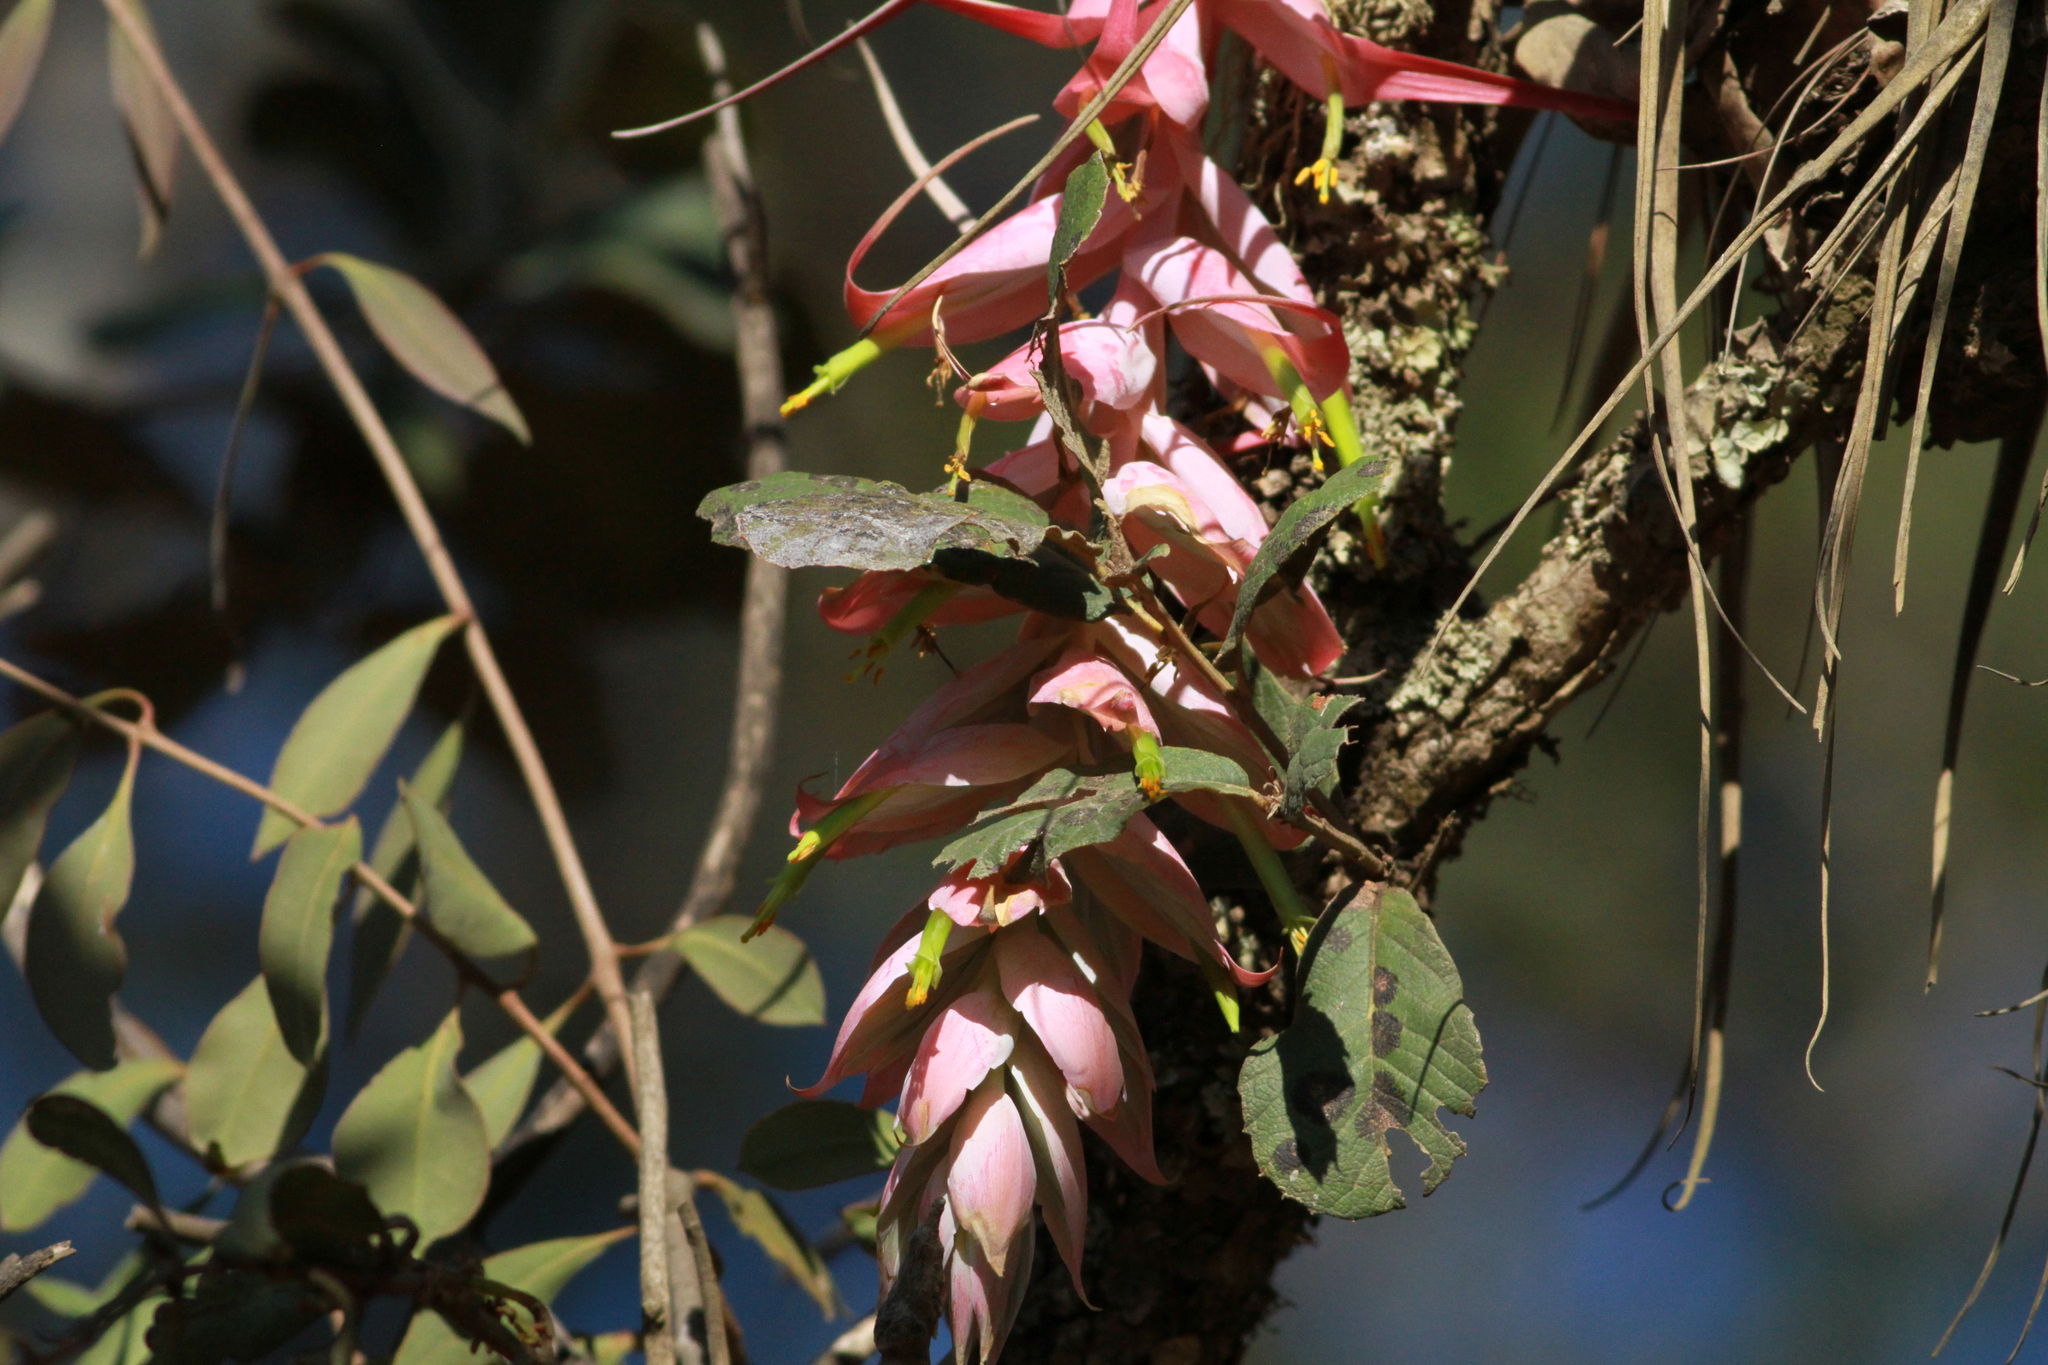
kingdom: Plantae
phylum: Tracheophyta
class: Liliopsida
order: Poales
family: Bromeliaceae
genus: Tillandsia
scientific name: Tillandsia prodigiosa
